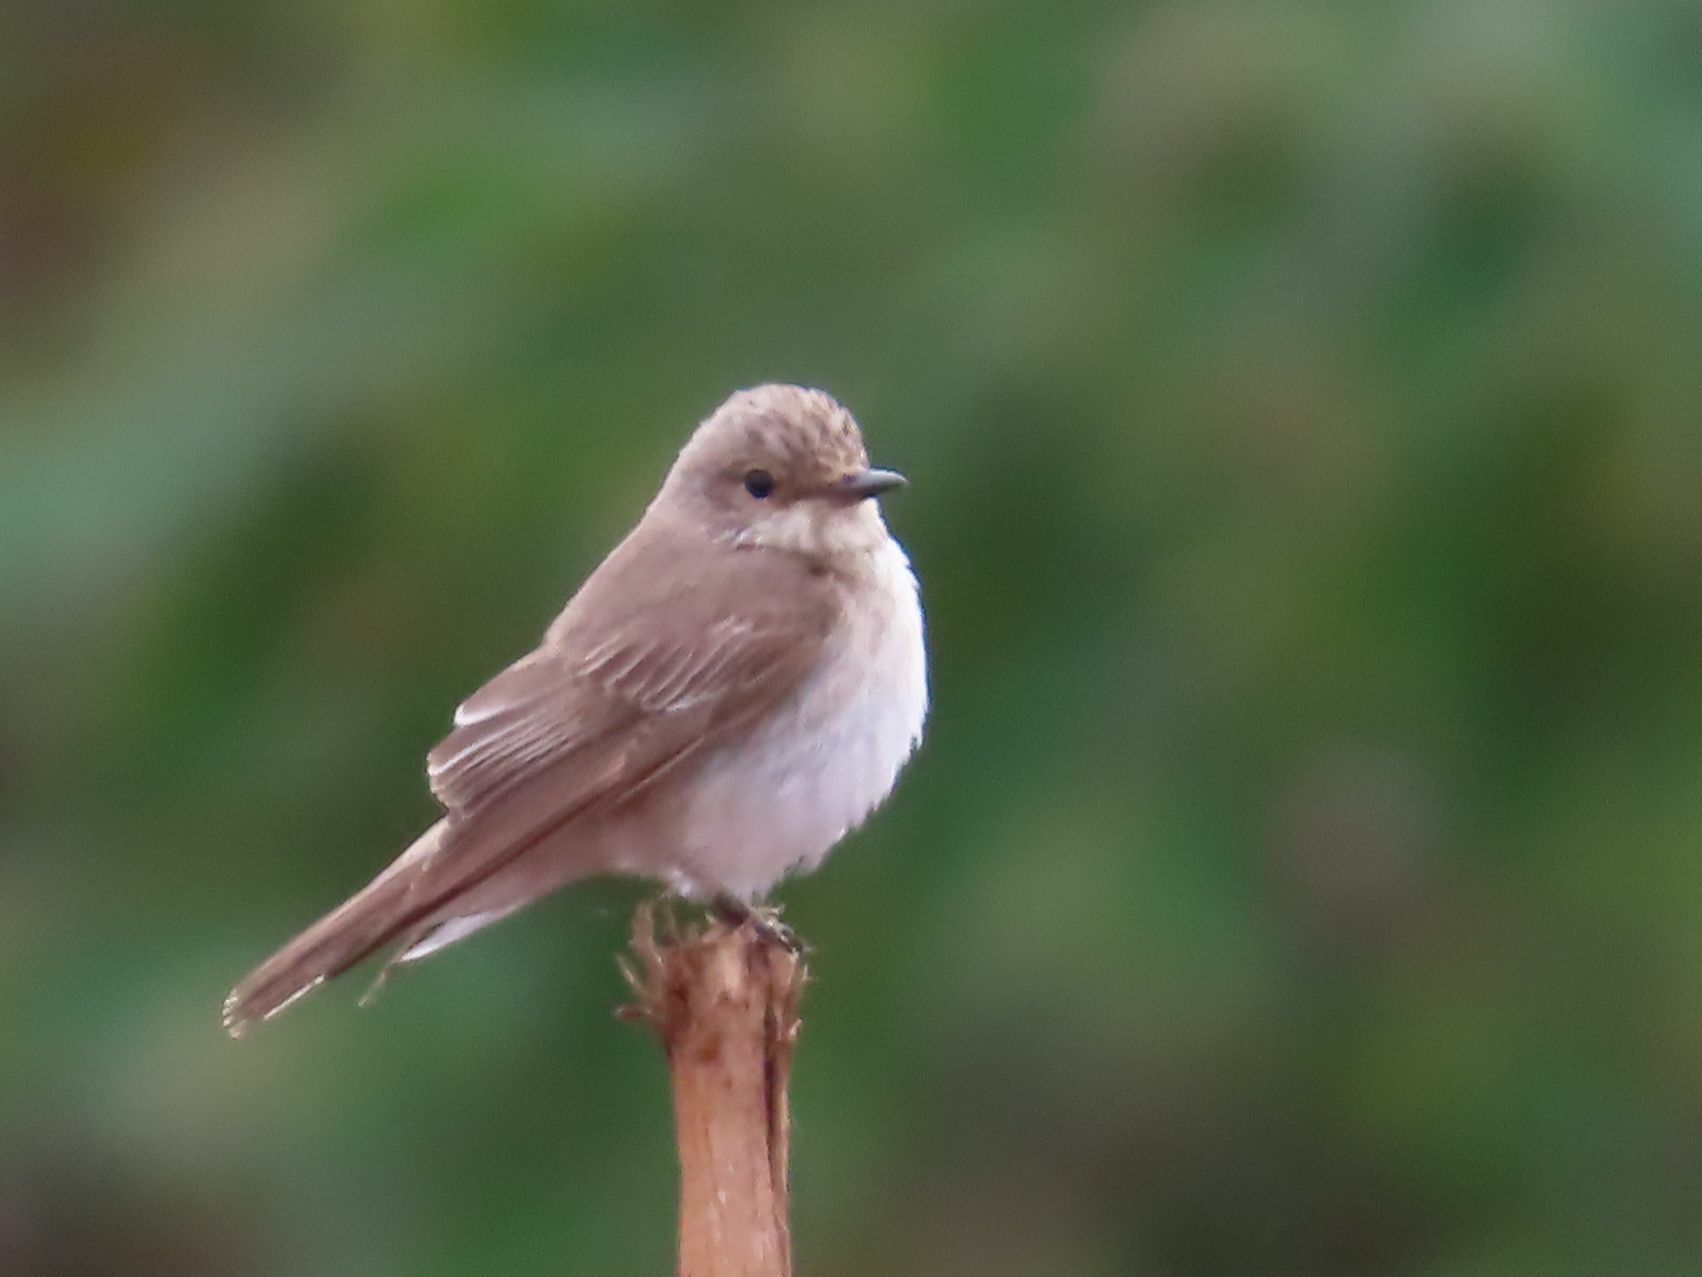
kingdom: Animalia
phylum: Chordata
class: Aves
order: Passeriformes
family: Muscicapidae
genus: Muscicapa
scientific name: Muscicapa striata
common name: Spotted flycatcher
